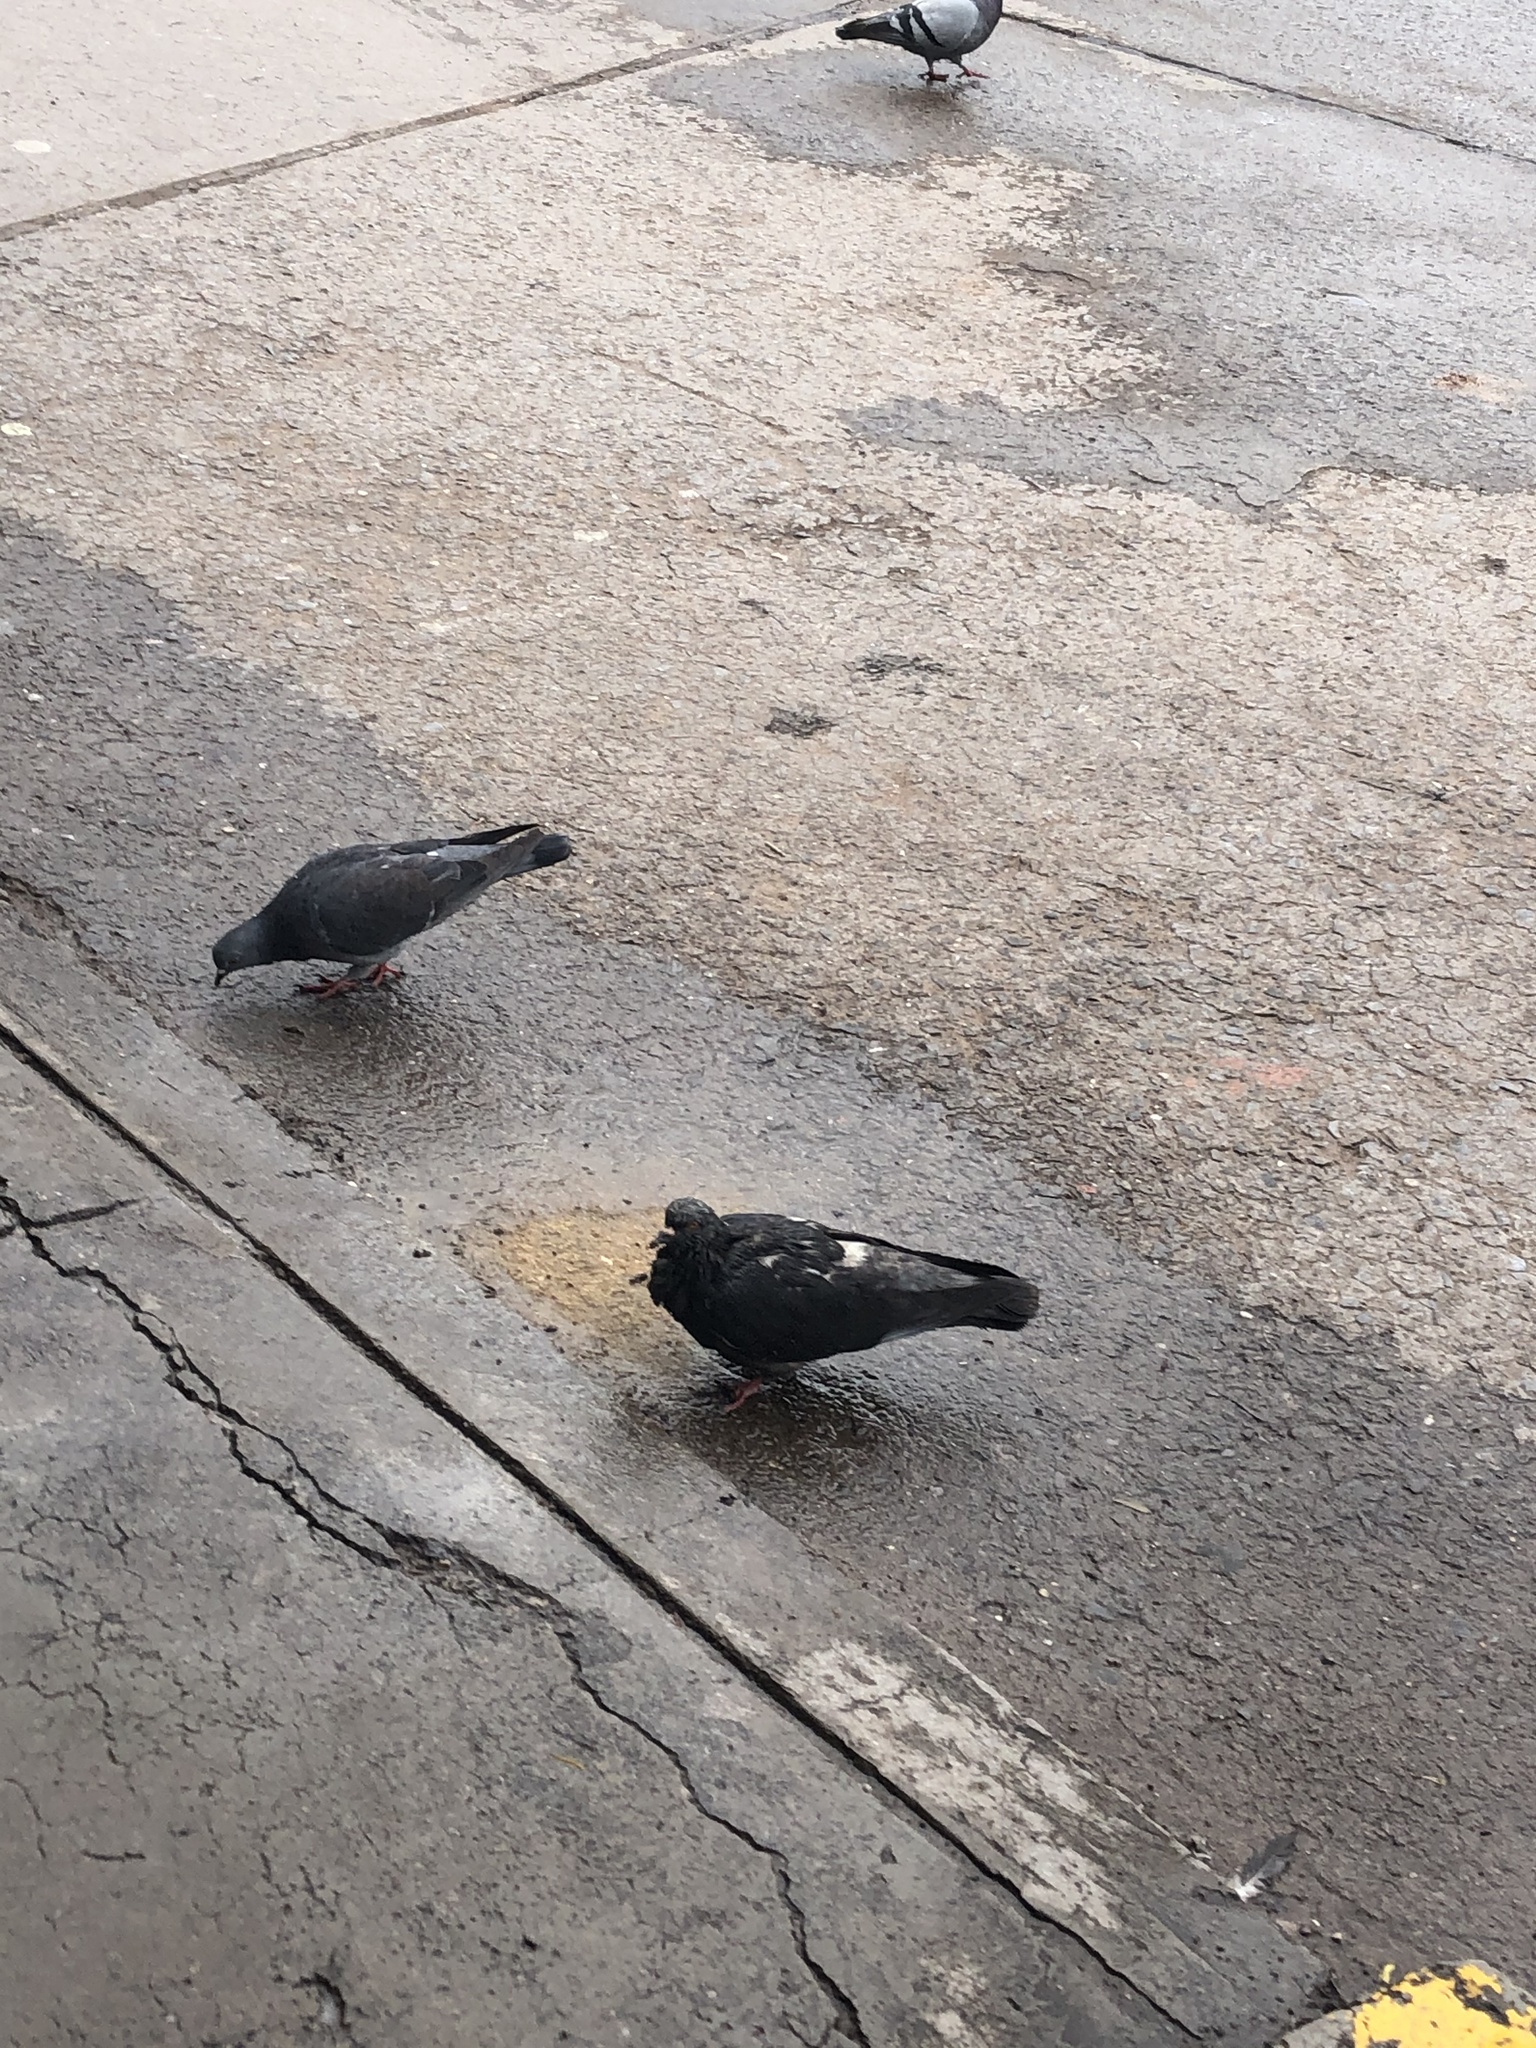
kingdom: Animalia
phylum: Chordata
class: Aves
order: Columbiformes
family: Columbidae
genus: Columba
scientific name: Columba livia
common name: Rock pigeon
